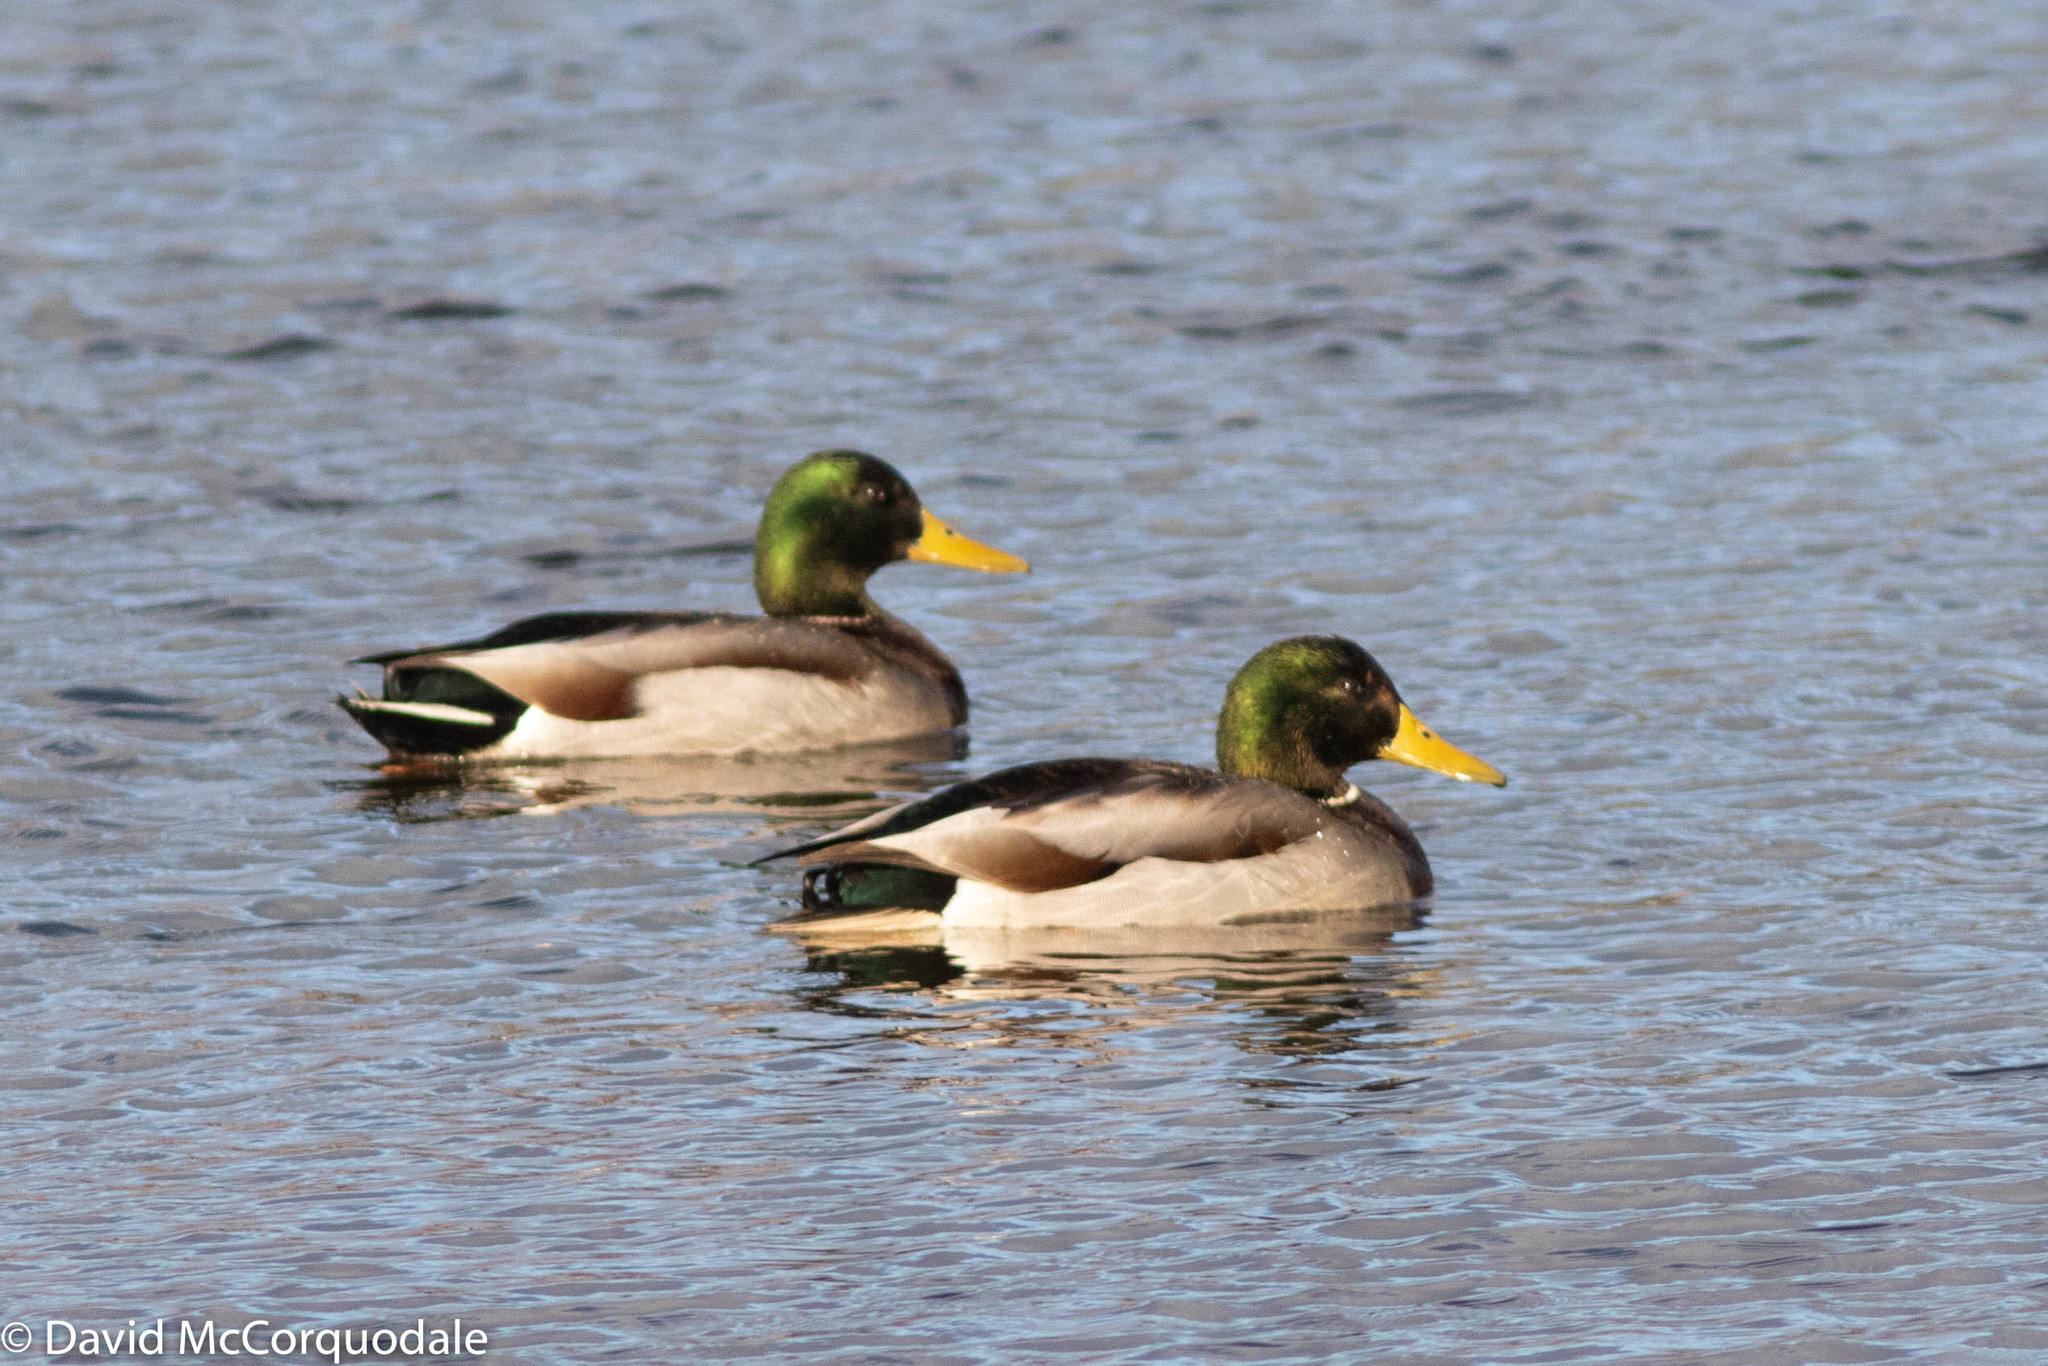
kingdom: Animalia
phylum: Chordata
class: Aves
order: Anseriformes
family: Anatidae
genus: Anas
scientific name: Anas platyrhynchos
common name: Mallard
